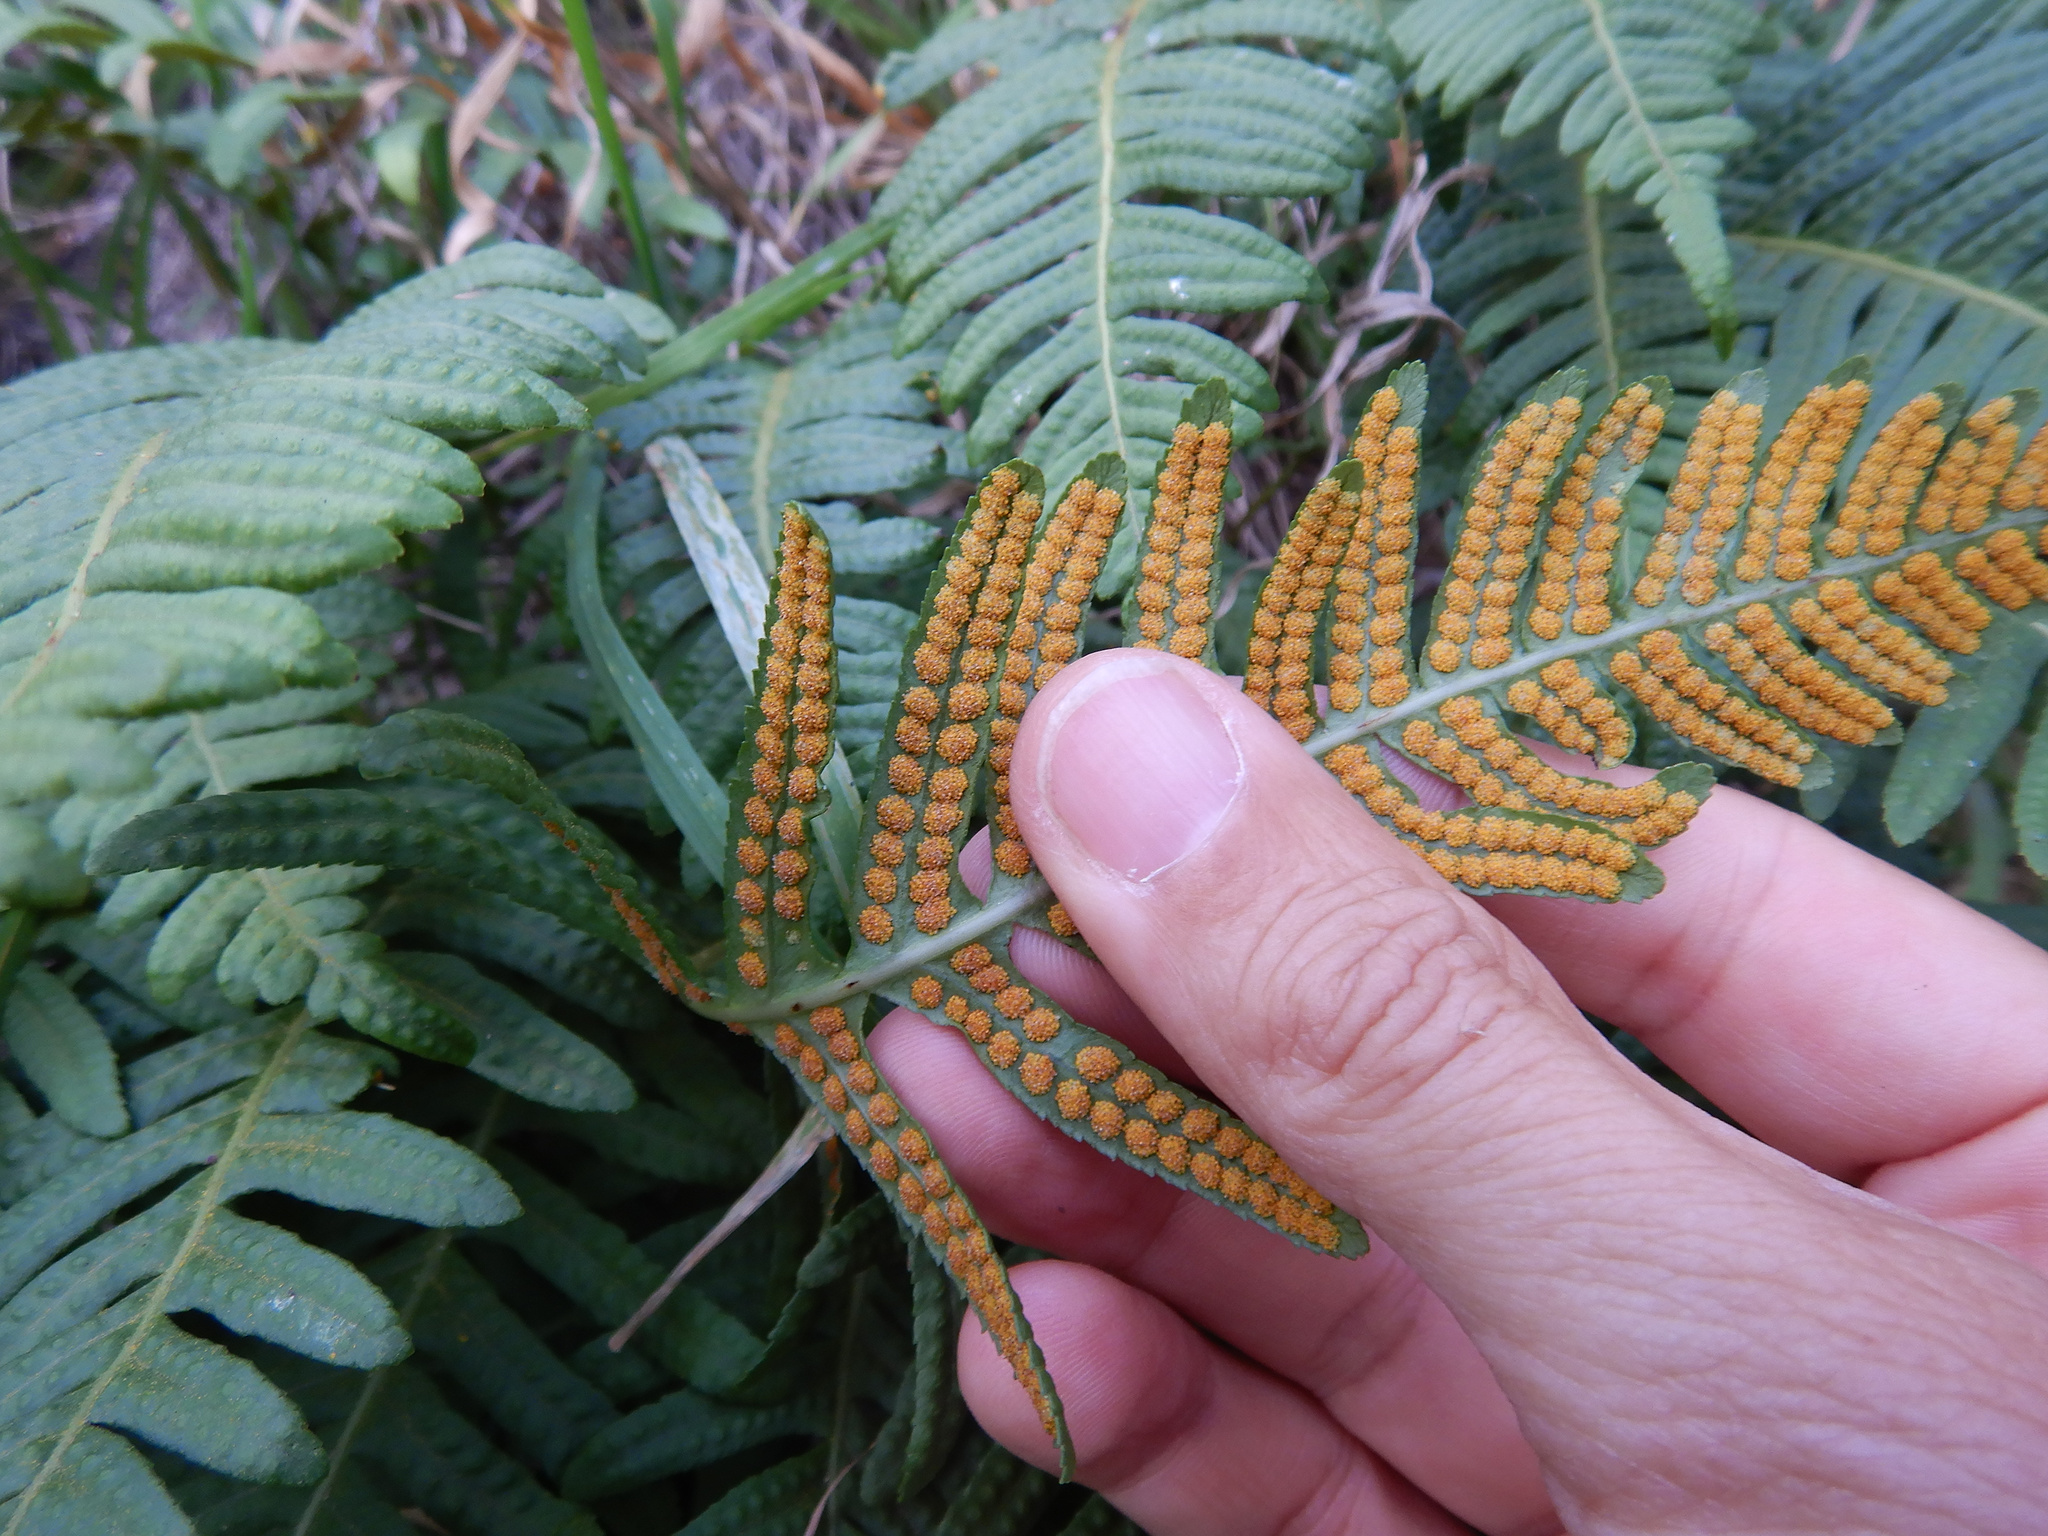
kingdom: Plantae
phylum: Tracheophyta
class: Polypodiopsida
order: Polypodiales
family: Polypodiaceae
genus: Polypodium
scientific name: Polypodium vulgare
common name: Common polypody
